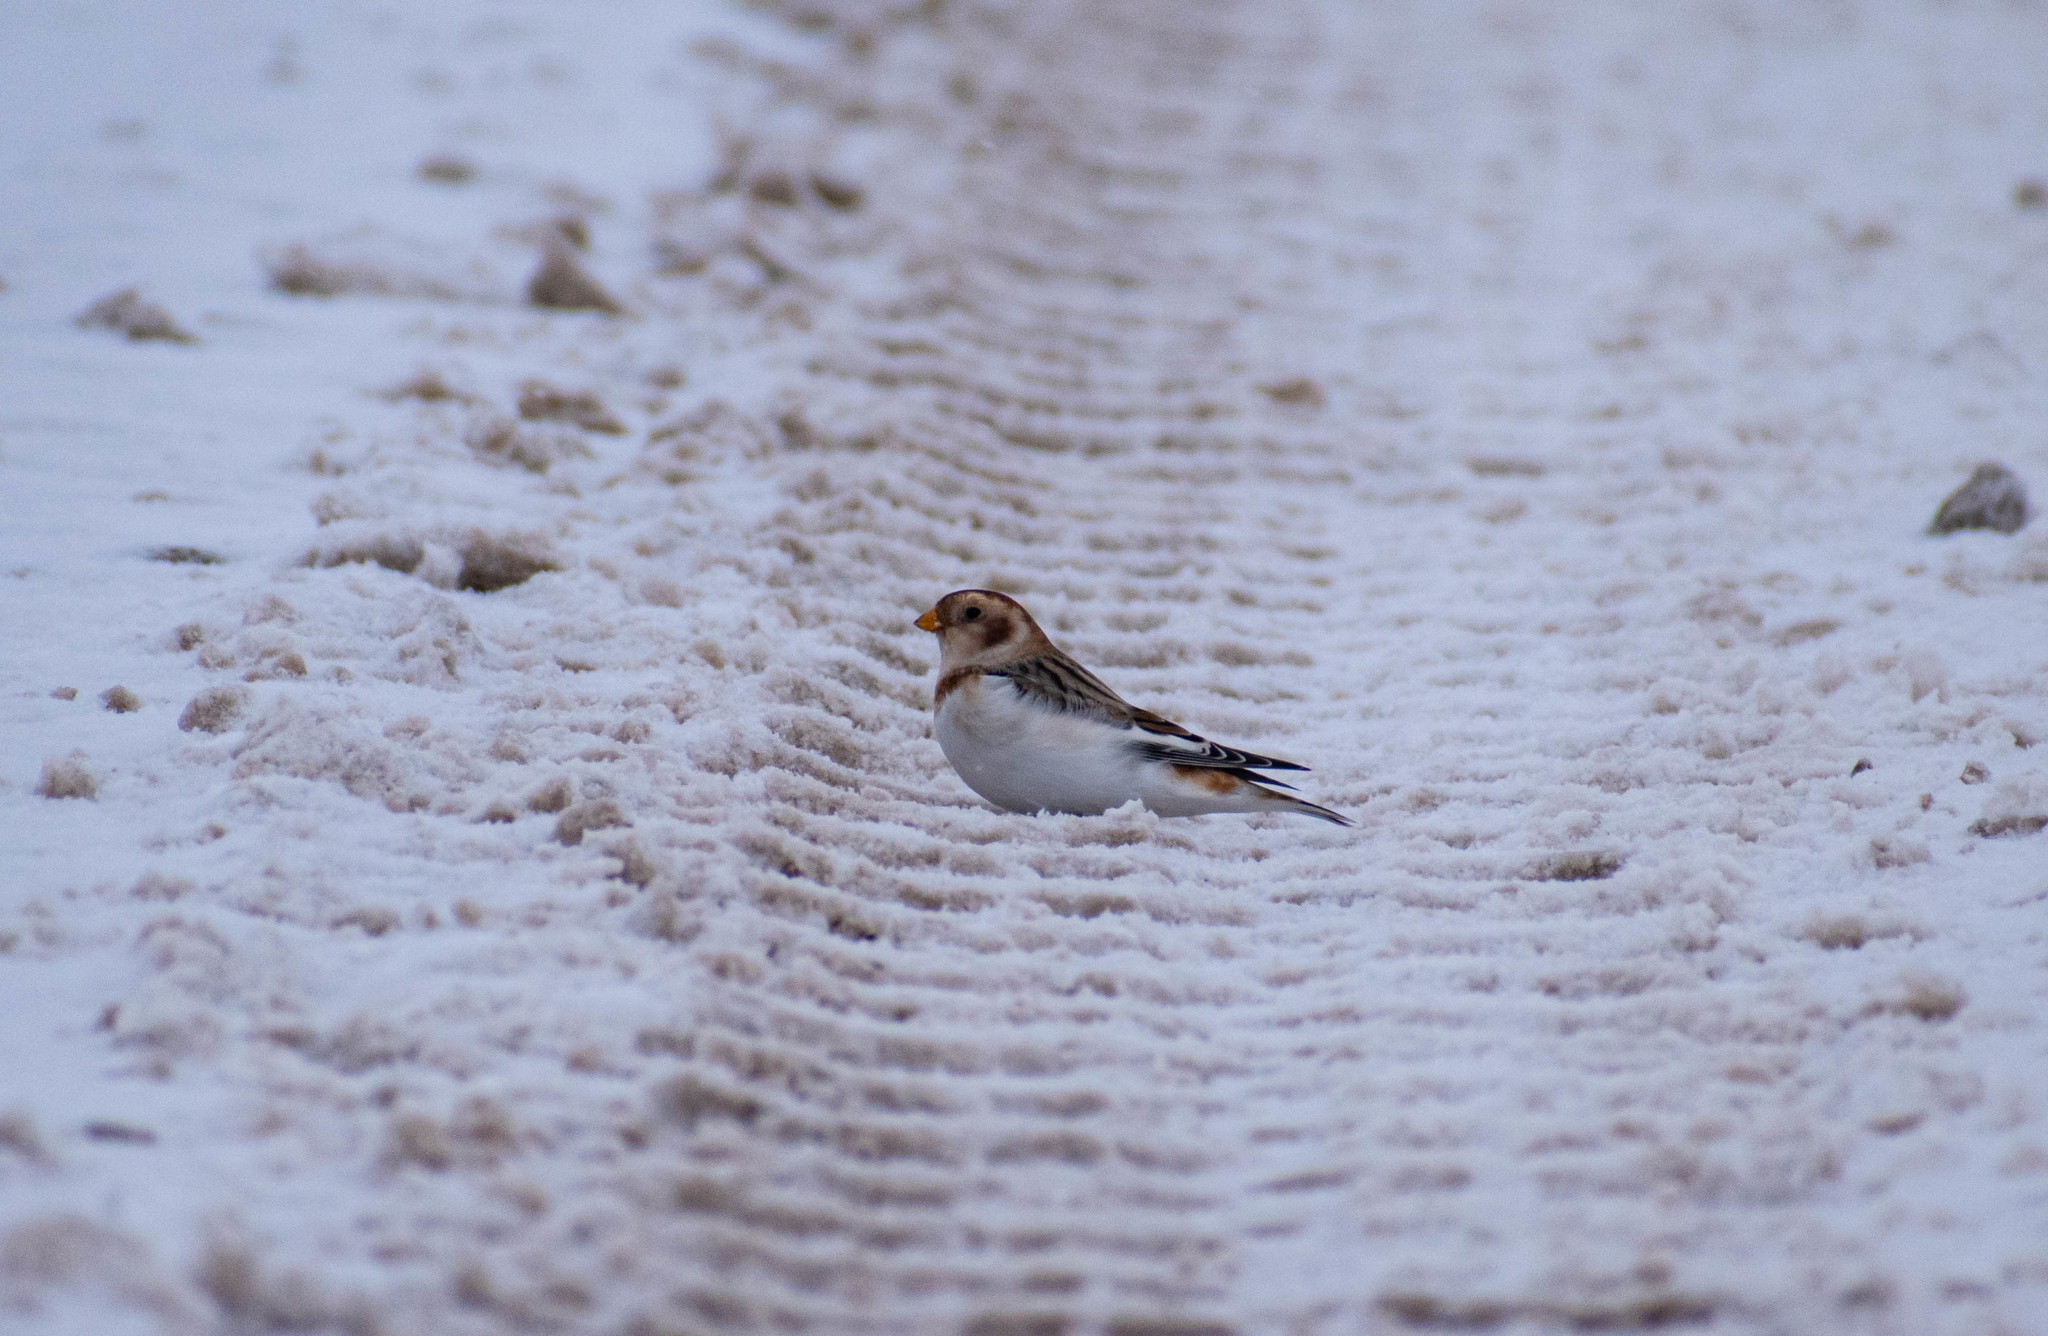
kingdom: Animalia
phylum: Chordata
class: Aves
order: Passeriformes
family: Calcariidae
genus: Plectrophenax
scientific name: Plectrophenax nivalis
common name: Snow bunting
